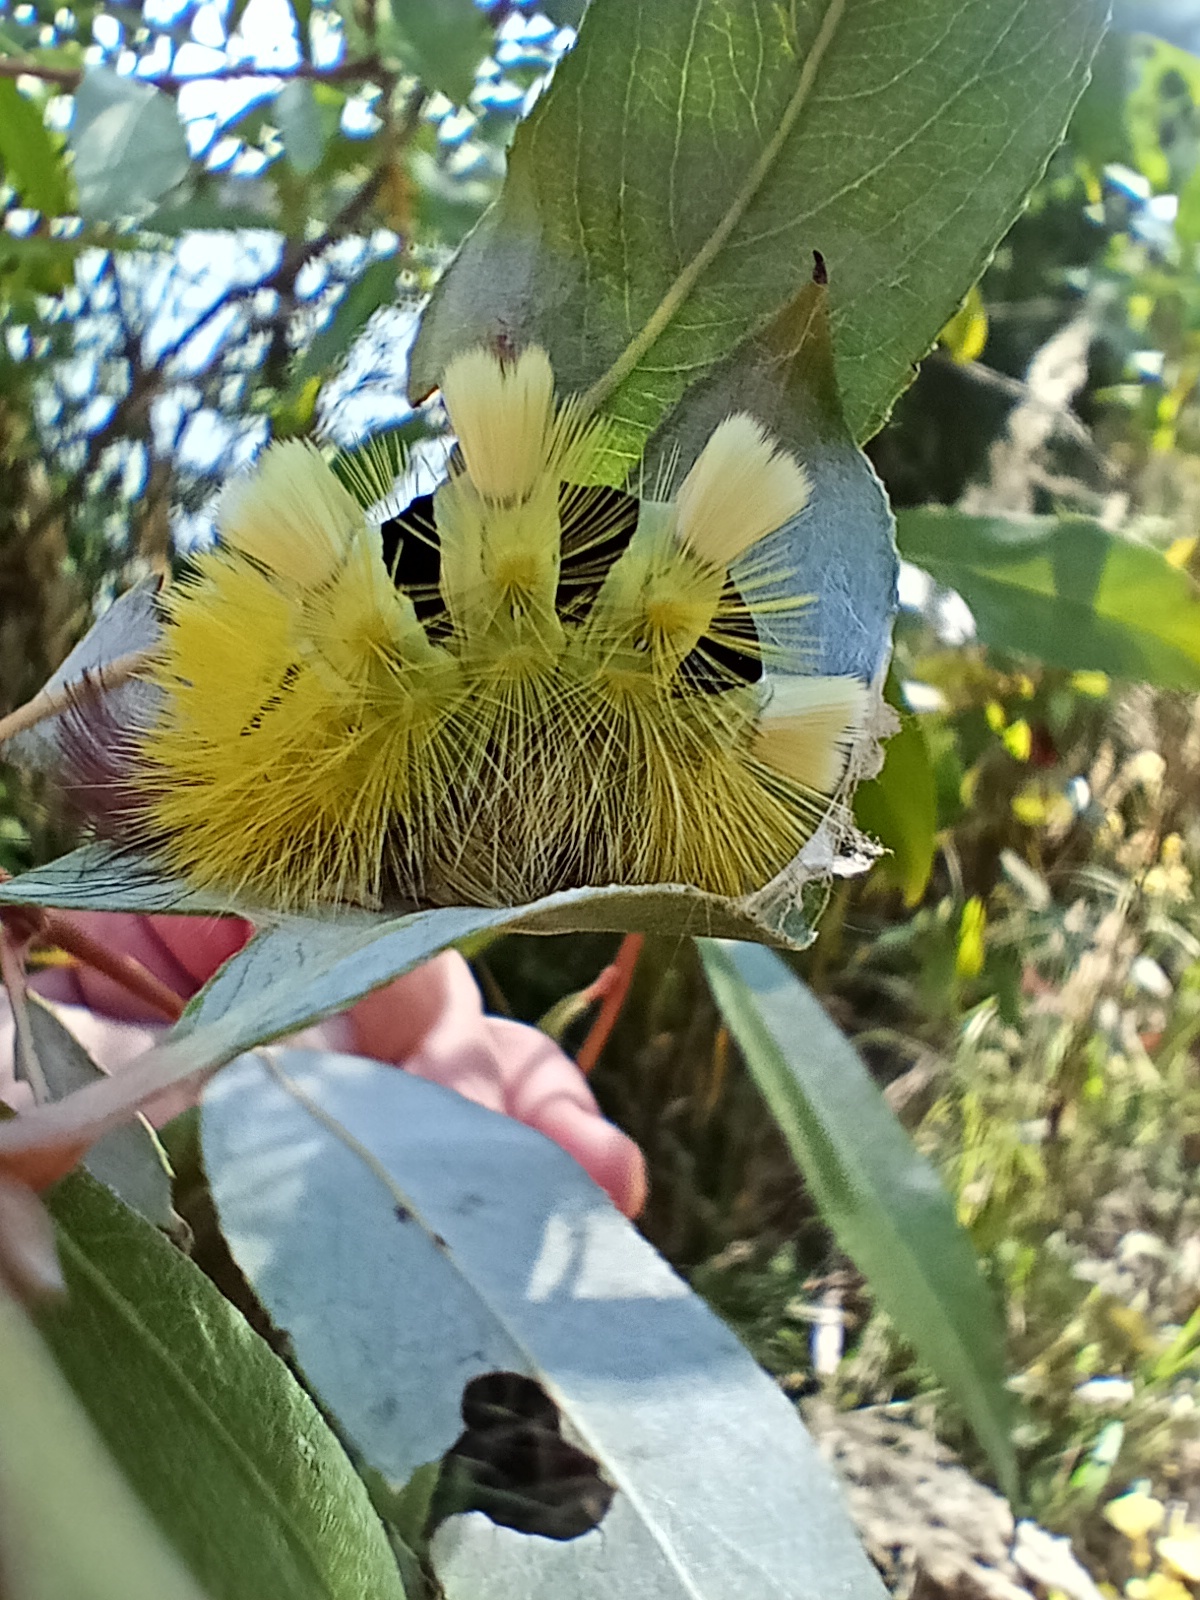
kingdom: Animalia
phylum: Arthropoda
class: Insecta
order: Lepidoptera
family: Erebidae
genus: Calliteara
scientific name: Calliteara pudibunda
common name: Pale tussock
